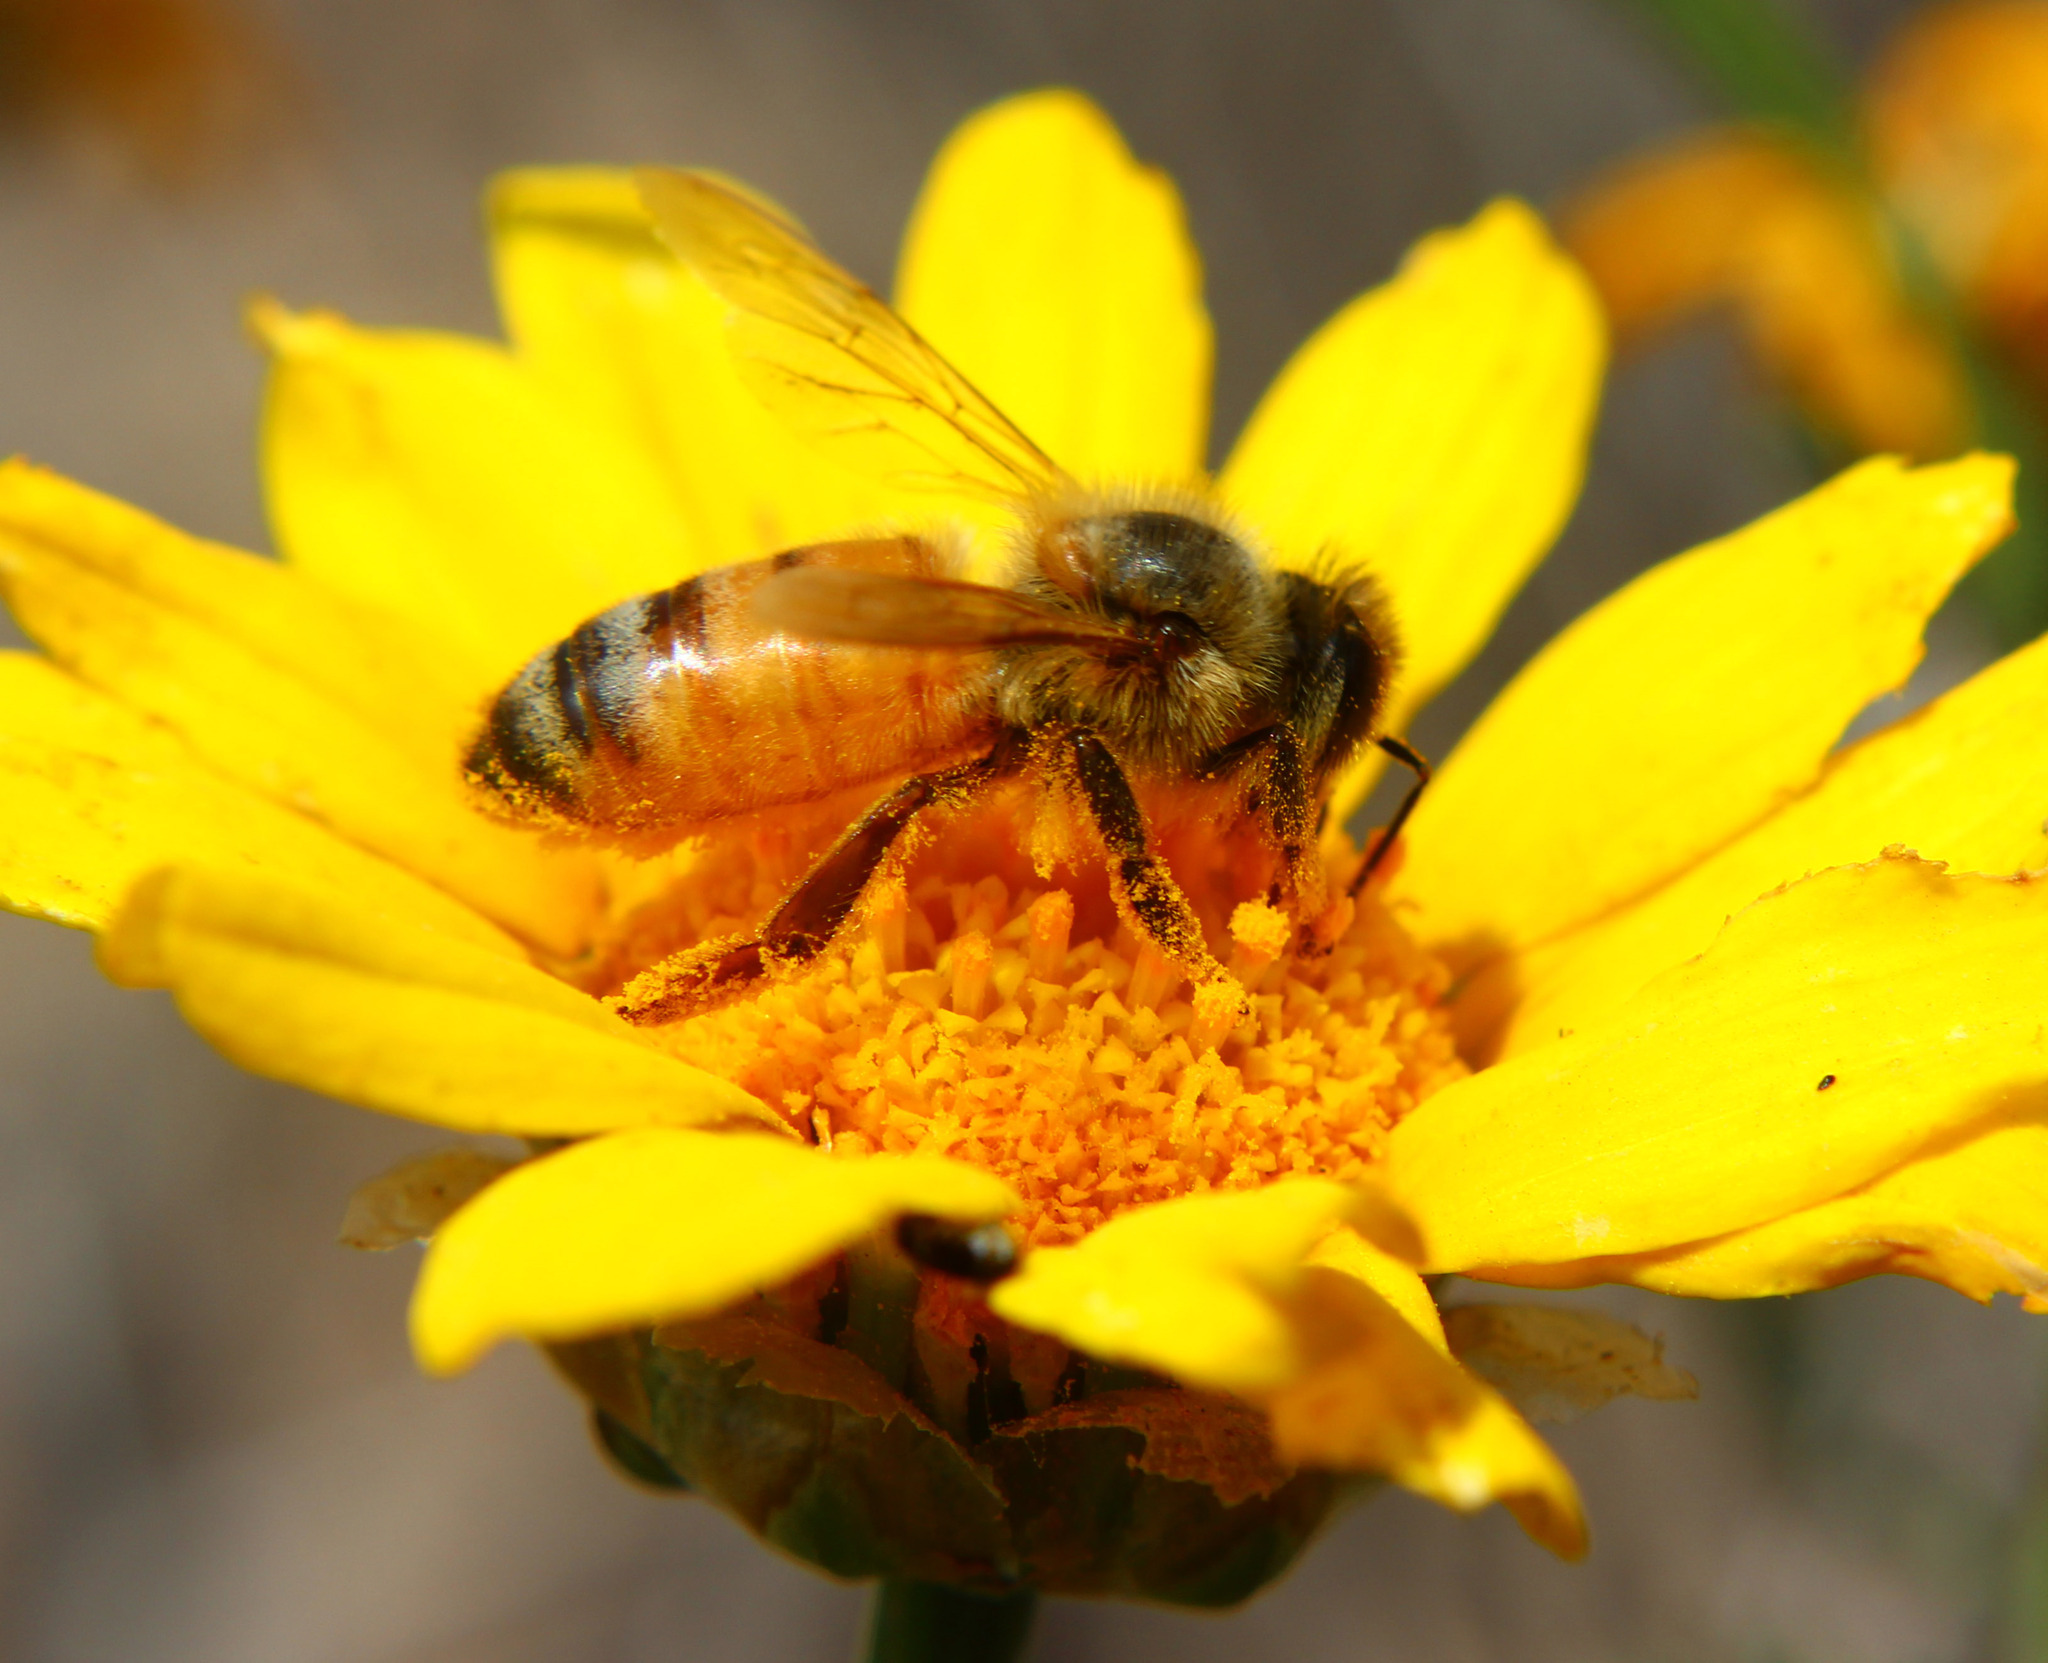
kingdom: Animalia
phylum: Arthropoda
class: Insecta
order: Hymenoptera
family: Apidae
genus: Apis
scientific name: Apis mellifera
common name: Honey bee
